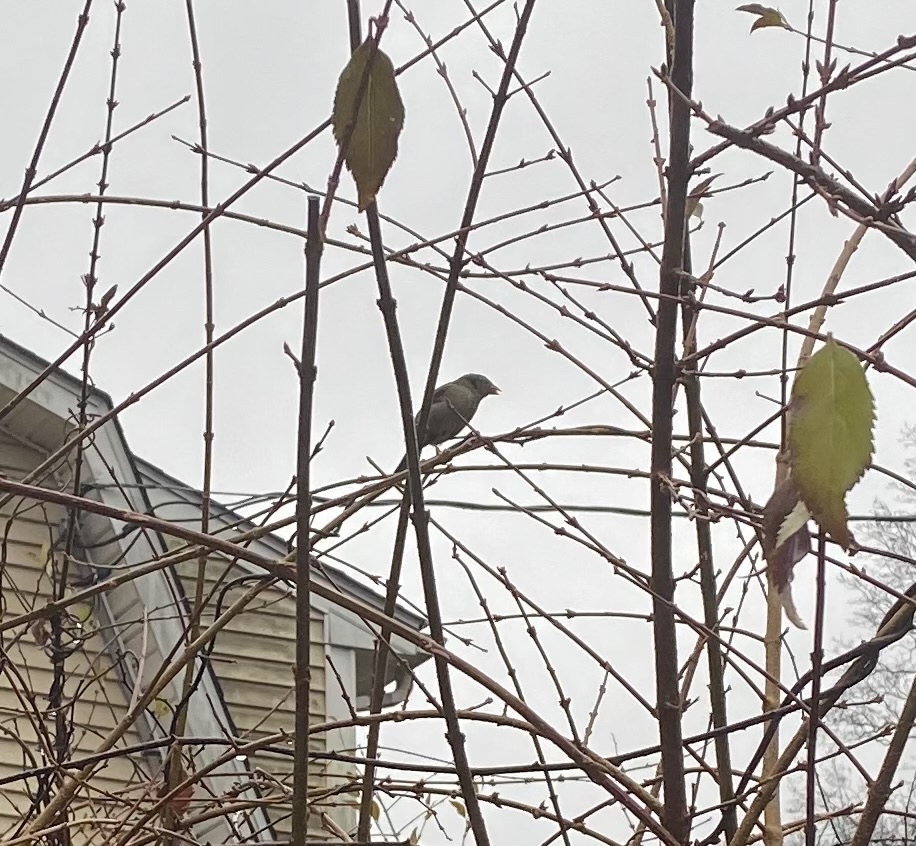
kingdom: Animalia
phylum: Chordata
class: Aves
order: Passeriformes
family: Passeridae
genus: Passer
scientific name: Passer domesticus
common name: House sparrow
